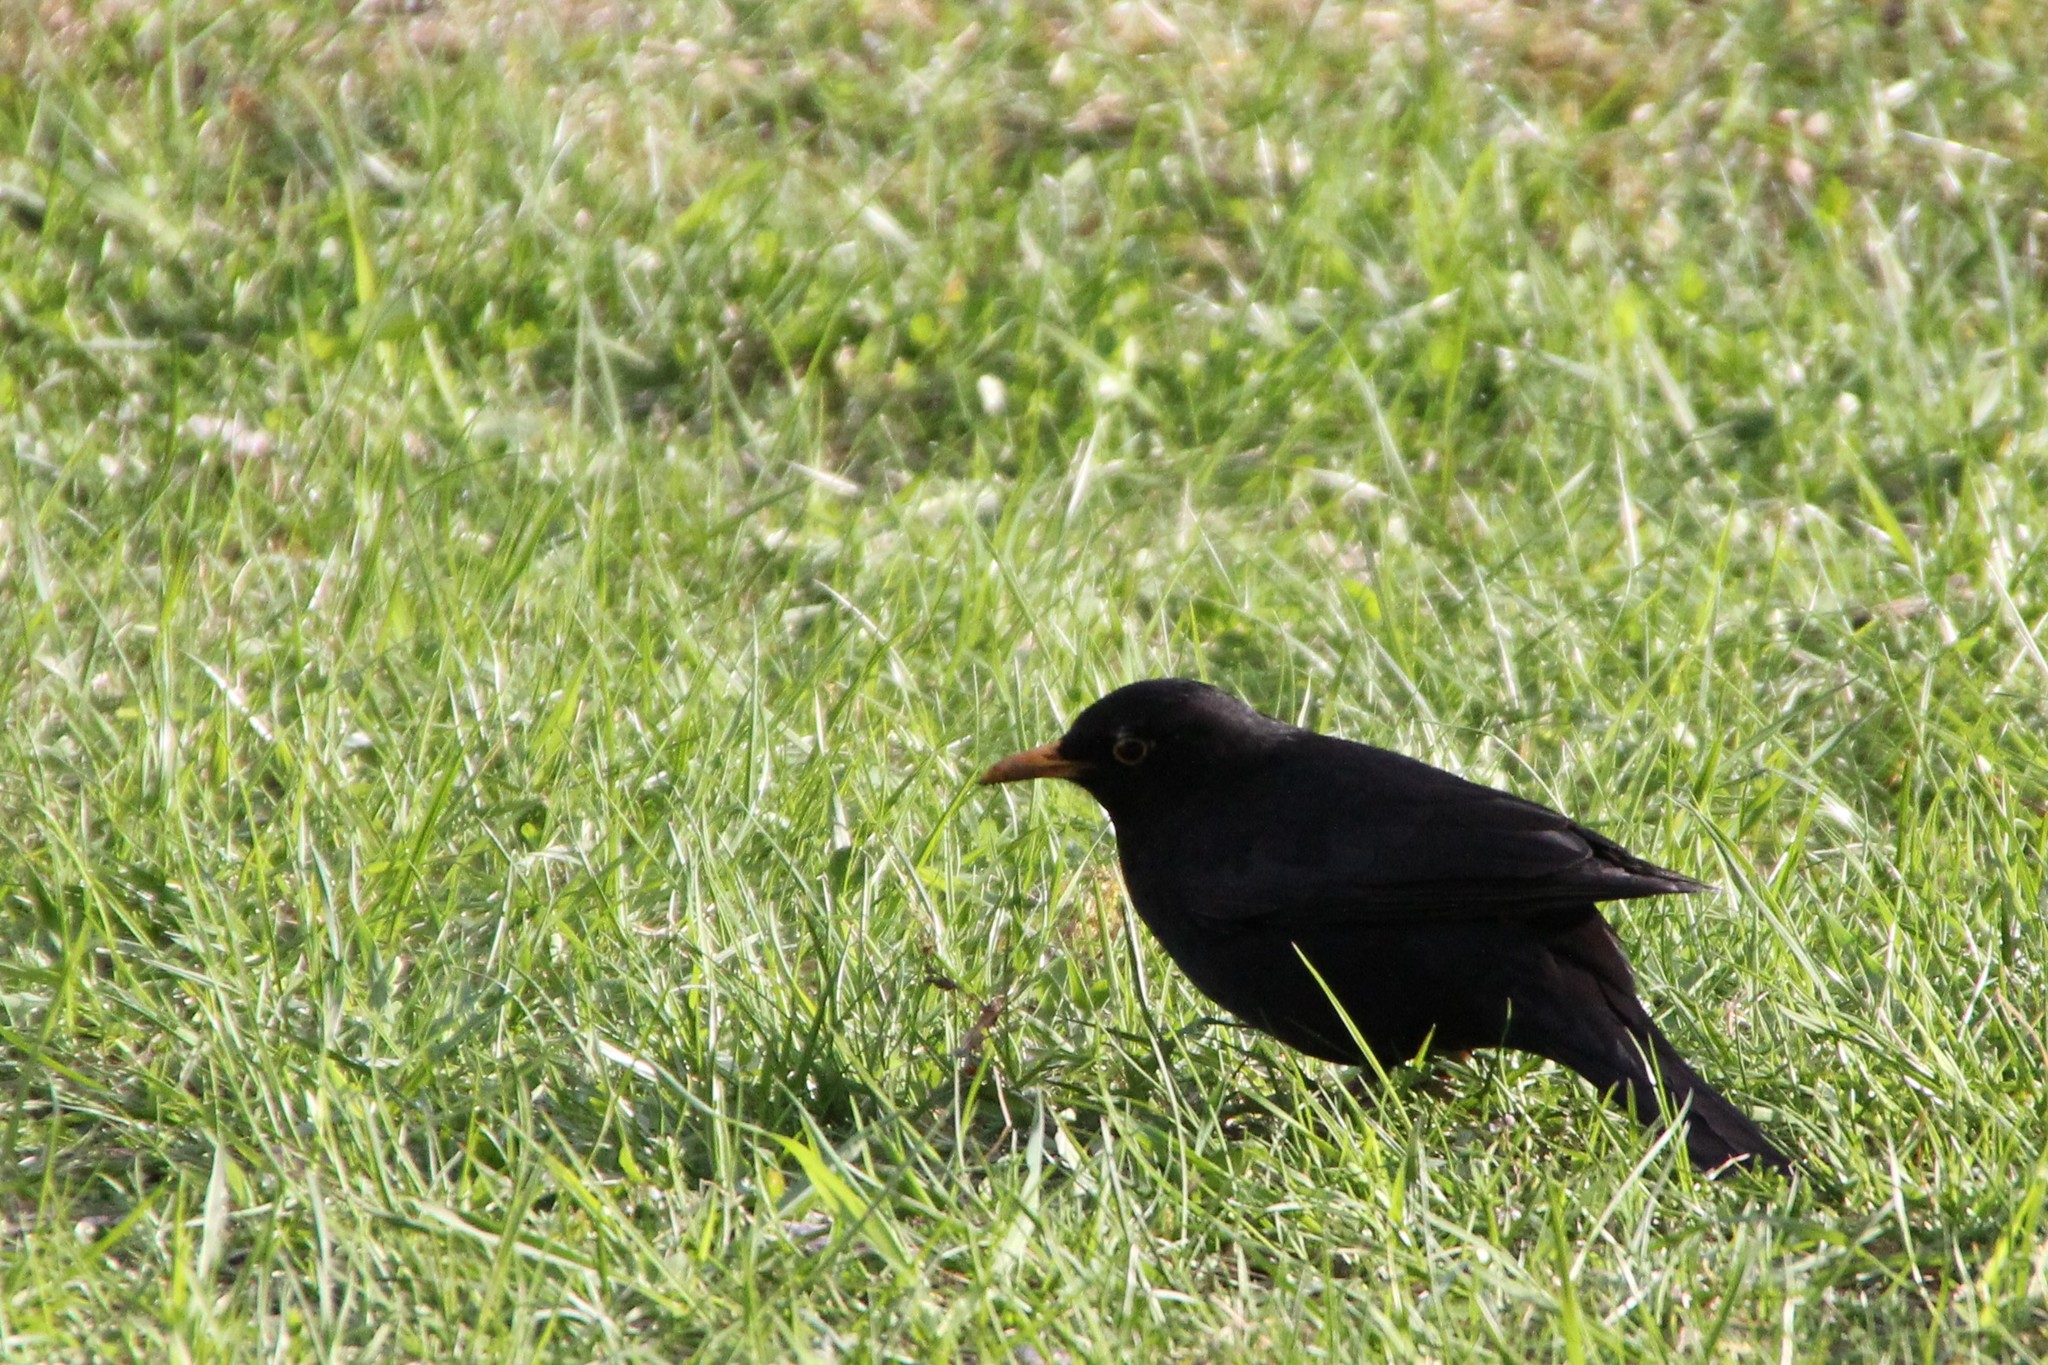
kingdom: Animalia
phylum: Chordata
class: Aves
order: Passeriformes
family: Turdidae
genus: Turdus
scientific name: Turdus merula
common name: Common blackbird
